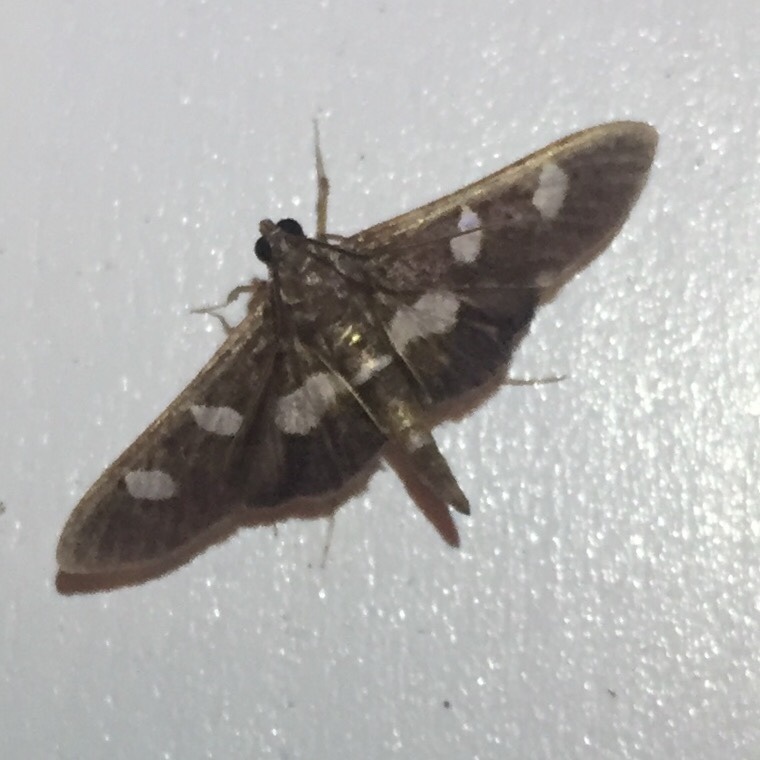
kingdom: Animalia
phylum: Arthropoda
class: Insecta
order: Lepidoptera
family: Crambidae
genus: Desmia
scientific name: Desmia
